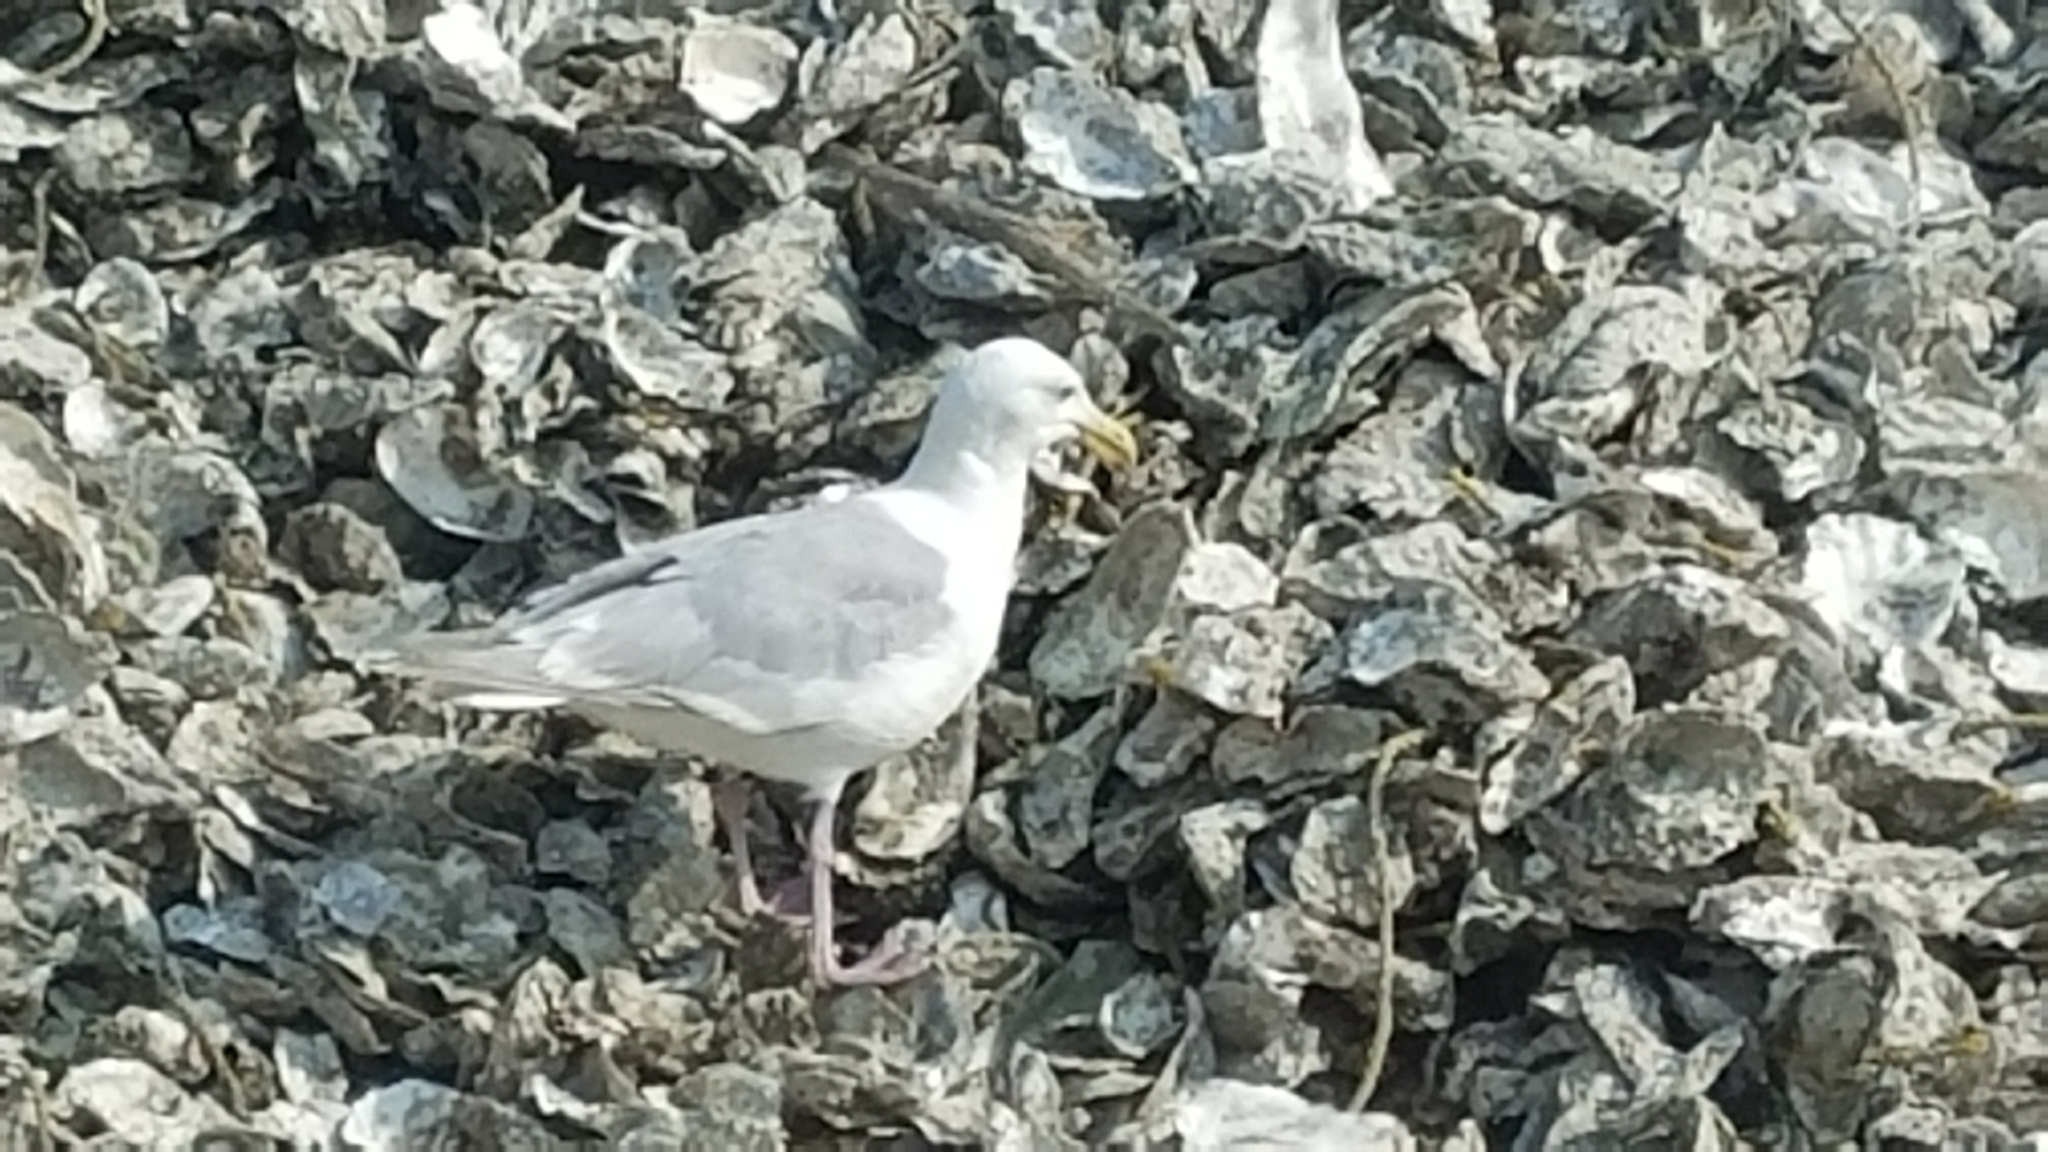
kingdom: Animalia
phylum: Chordata
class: Aves
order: Charadriiformes
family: Laridae
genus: Larus
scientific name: Larus glaucescens
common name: Glaucous-winged gull
